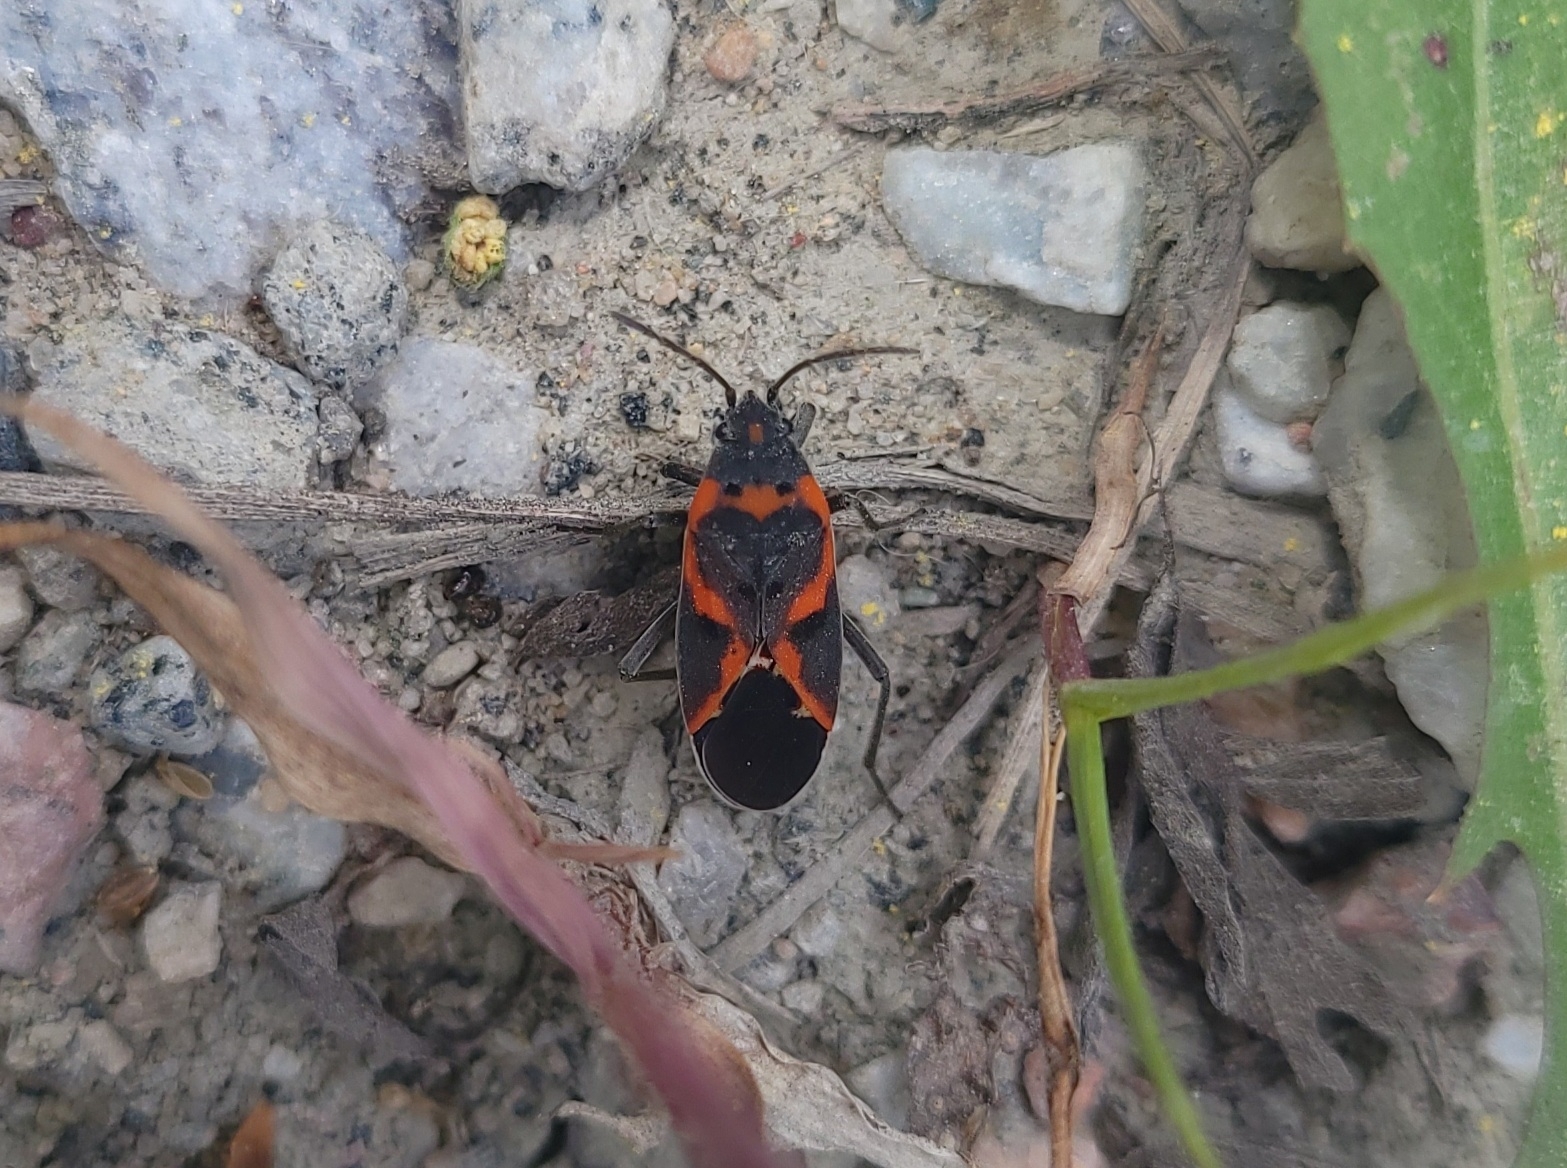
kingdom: Animalia
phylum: Arthropoda
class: Insecta
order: Hemiptera
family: Lygaeidae
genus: Lygaeus
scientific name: Lygaeus kalmii
